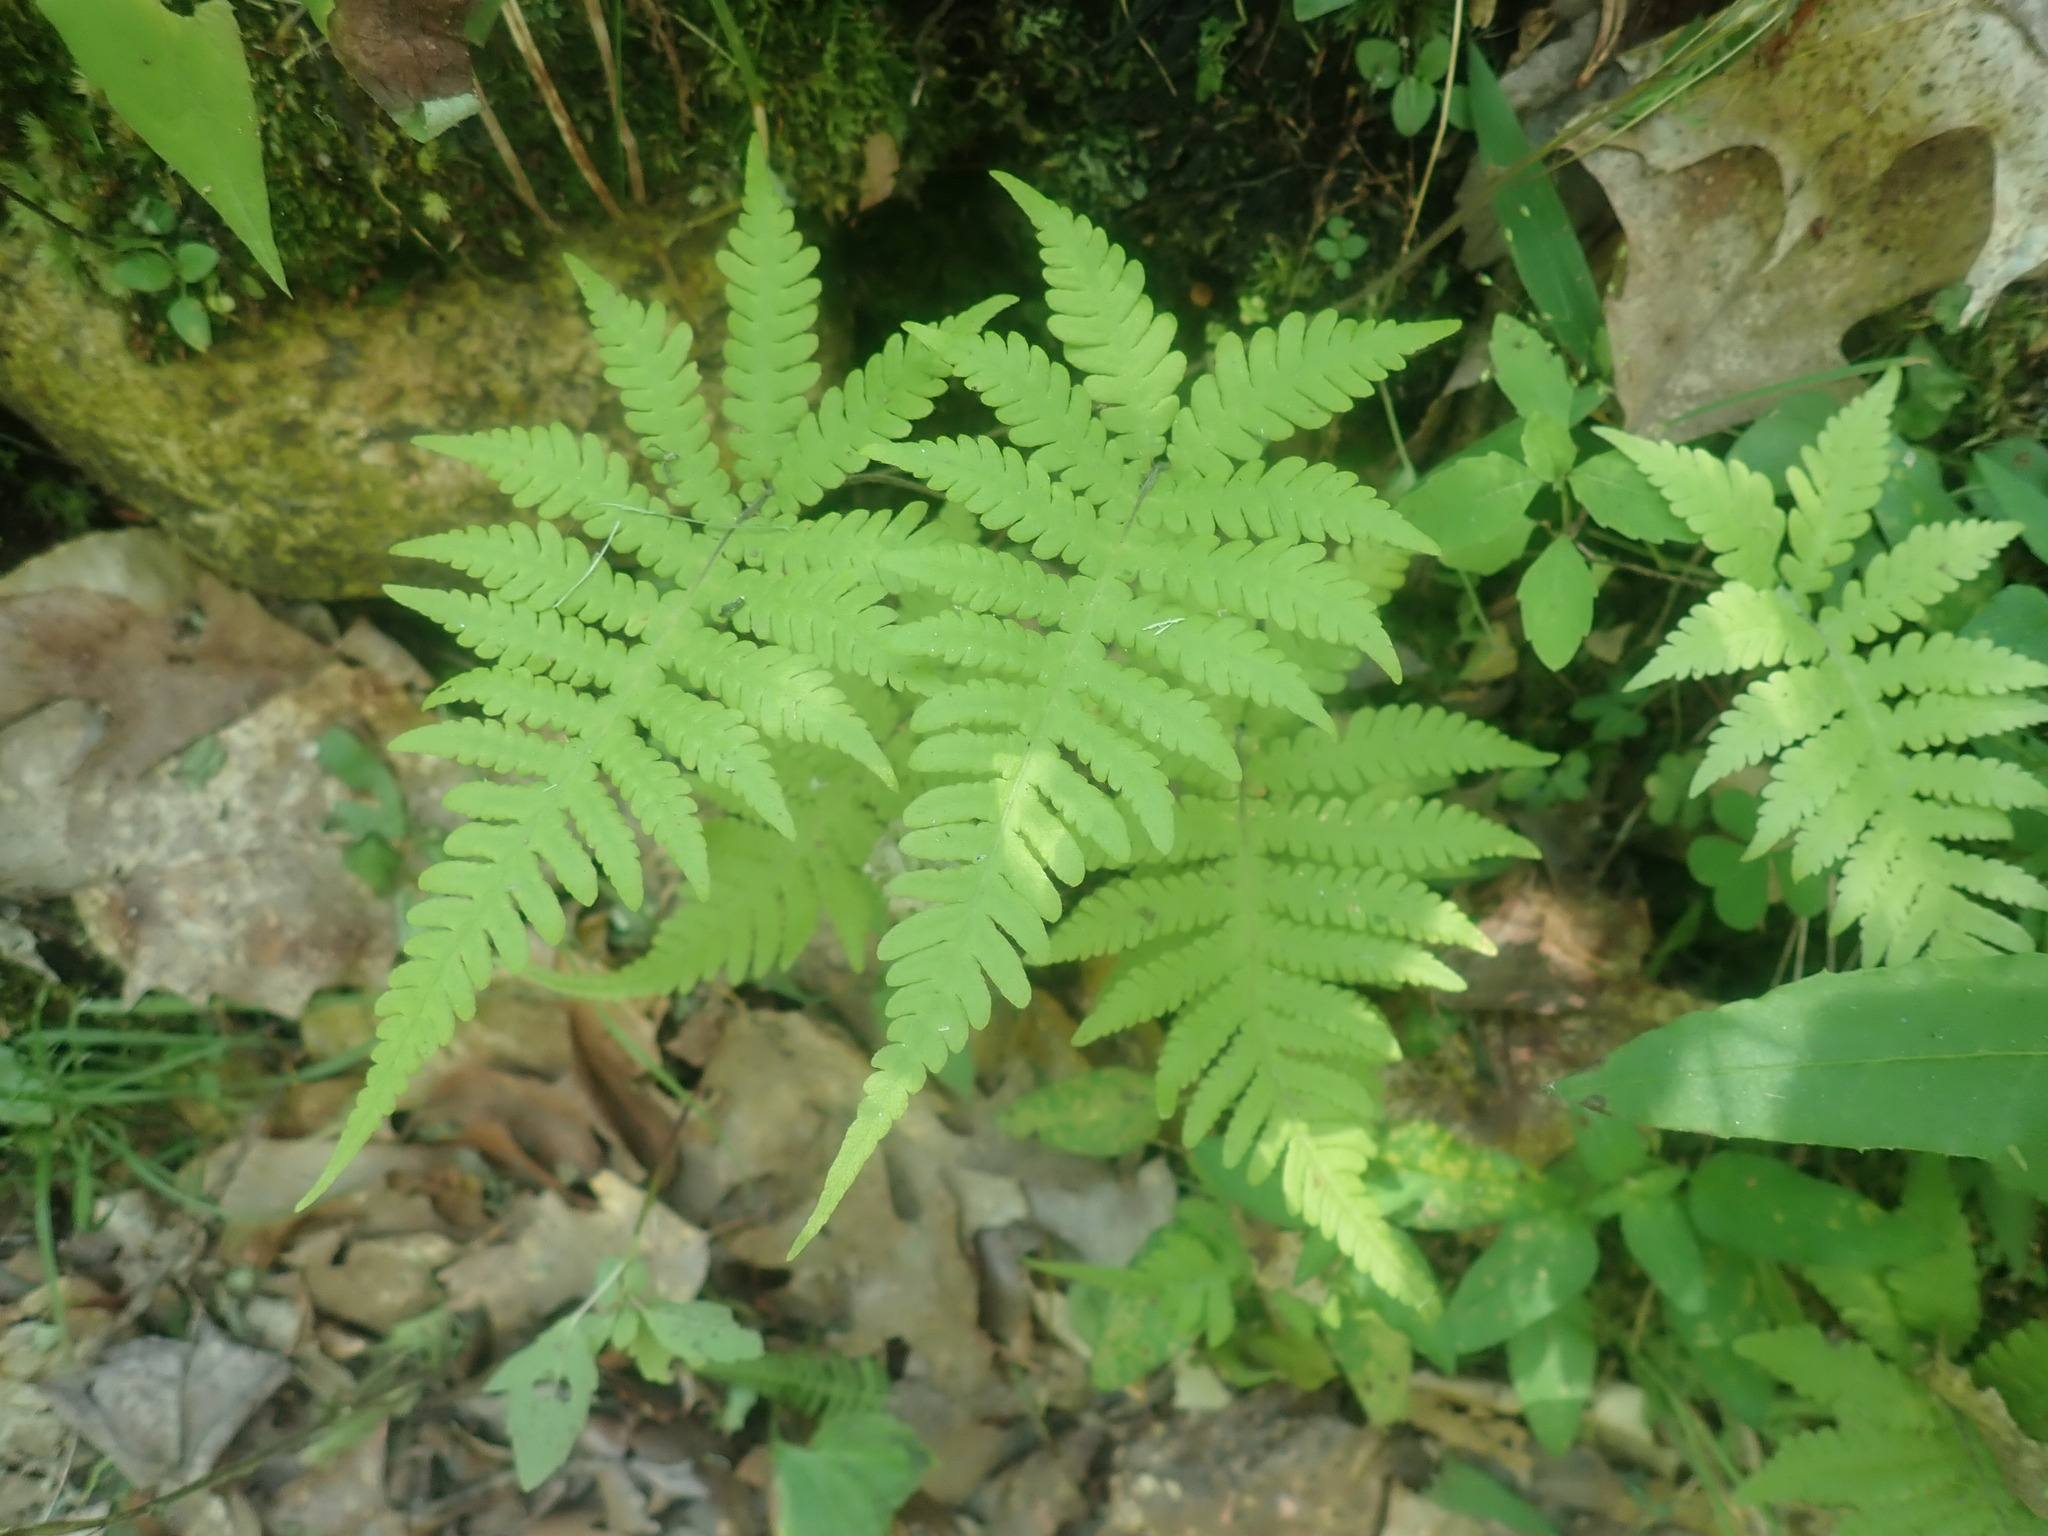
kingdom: Plantae
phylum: Tracheophyta
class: Polypodiopsida
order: Polypodiales
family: Thelypteridaceae
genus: Phegopteris
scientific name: Phegopteris connectilis
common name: Beech fern
